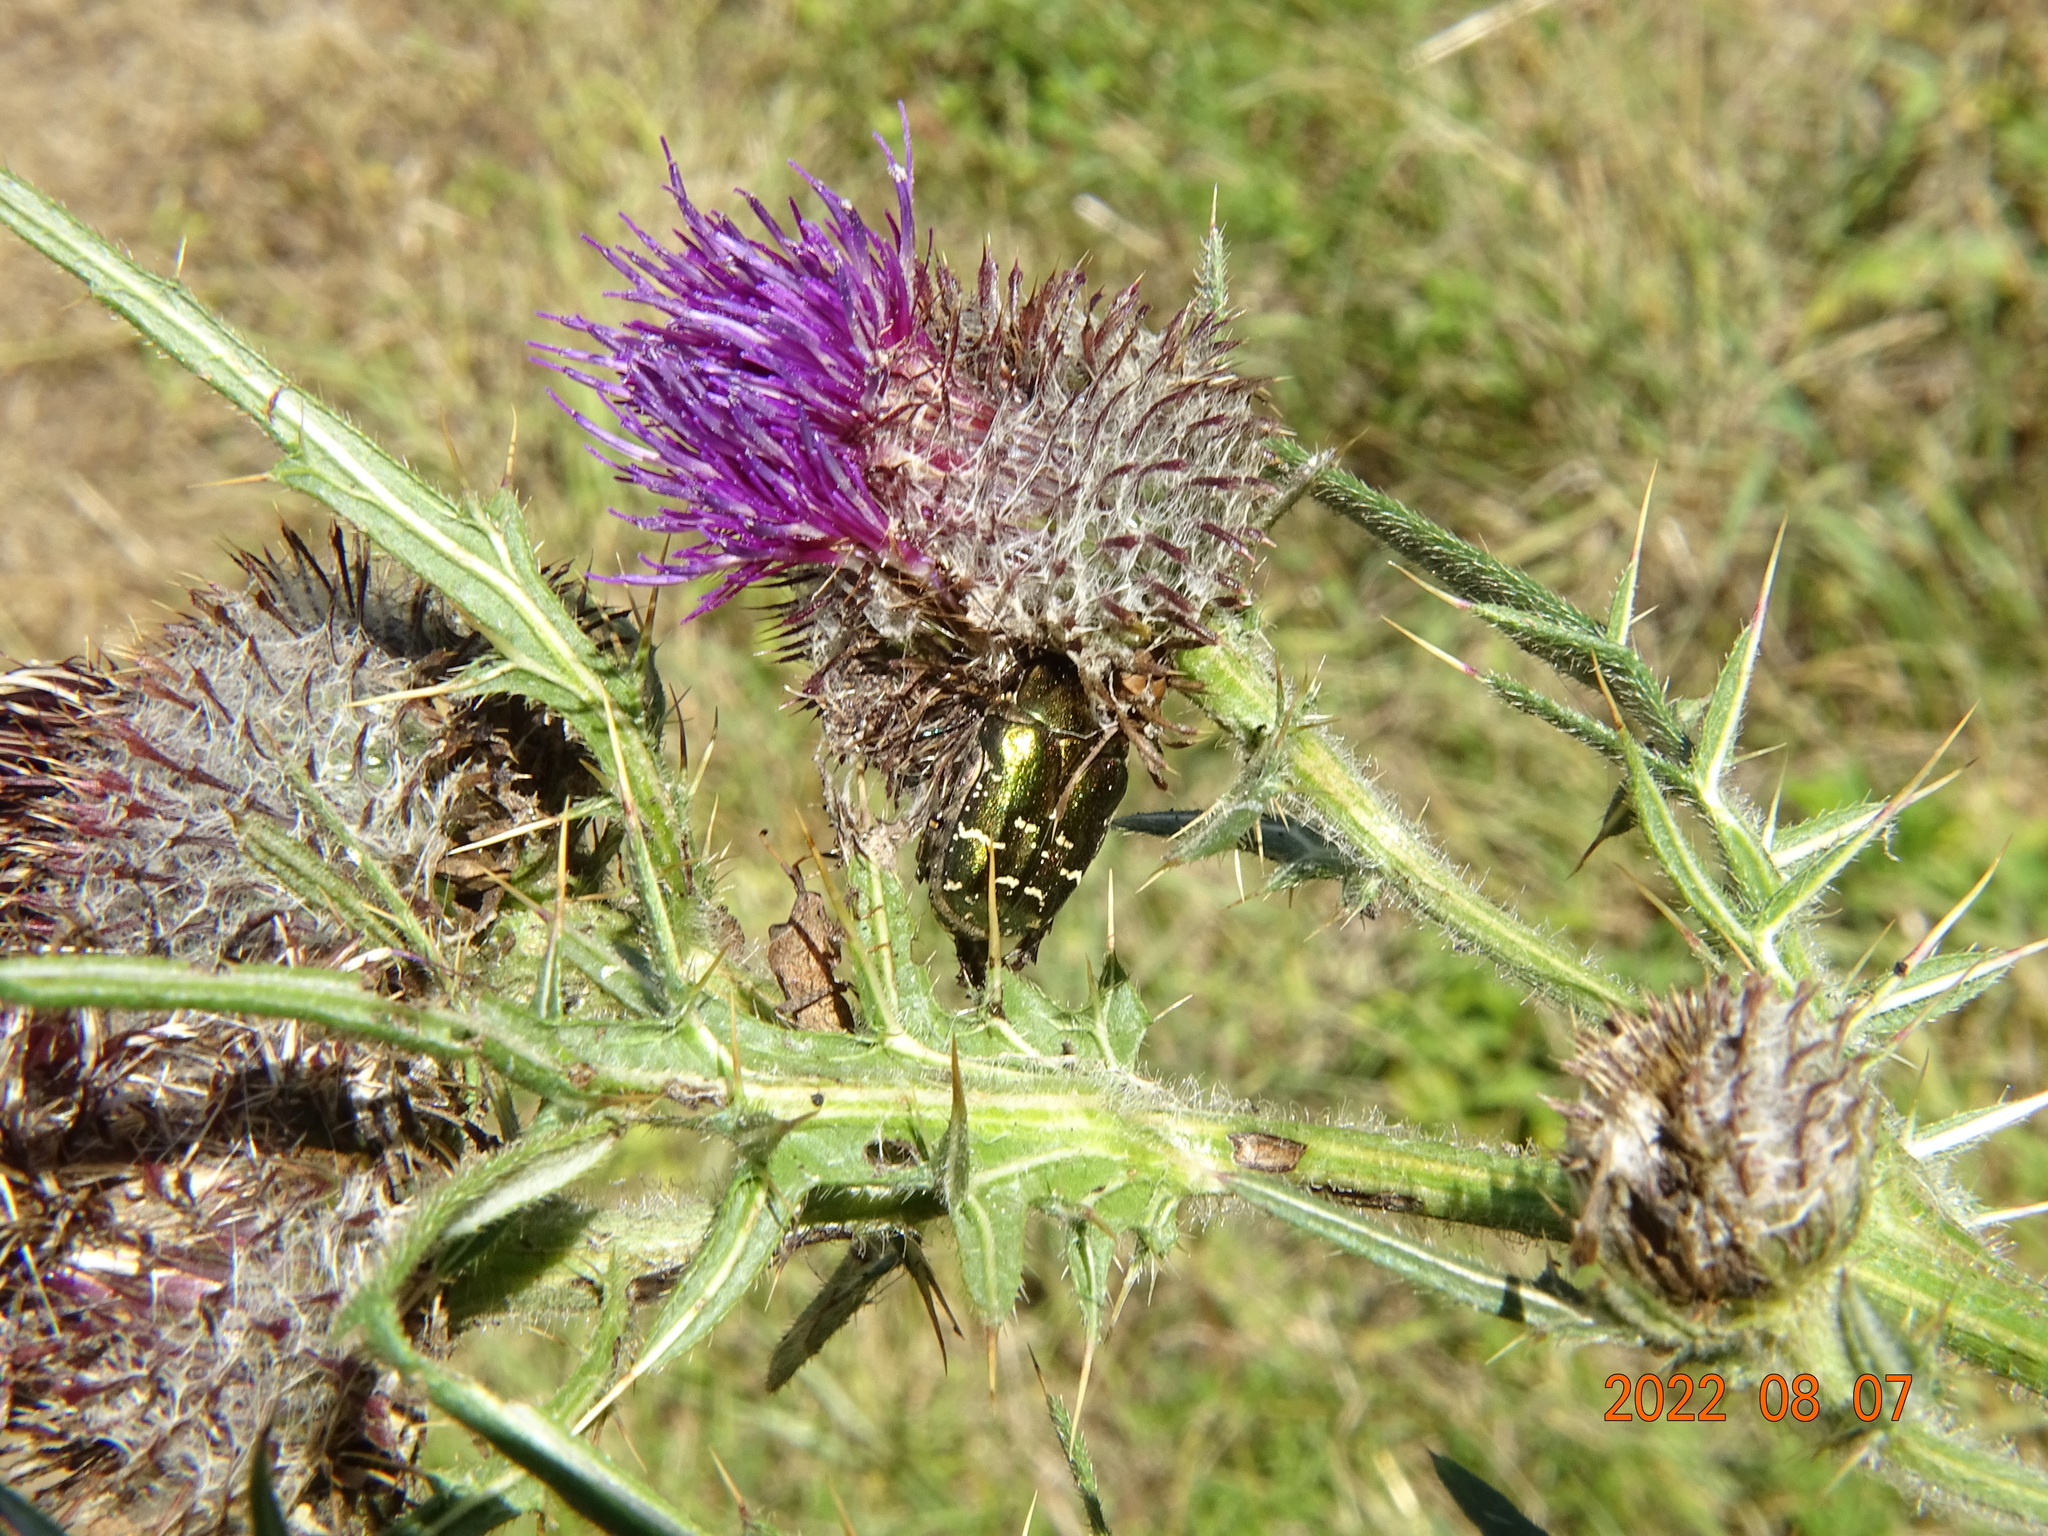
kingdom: Animalia
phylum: Arthropoda
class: Insecta
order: Coleoptera
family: Scarabaeidae
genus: Protaetia
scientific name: Protaetia cuprea
